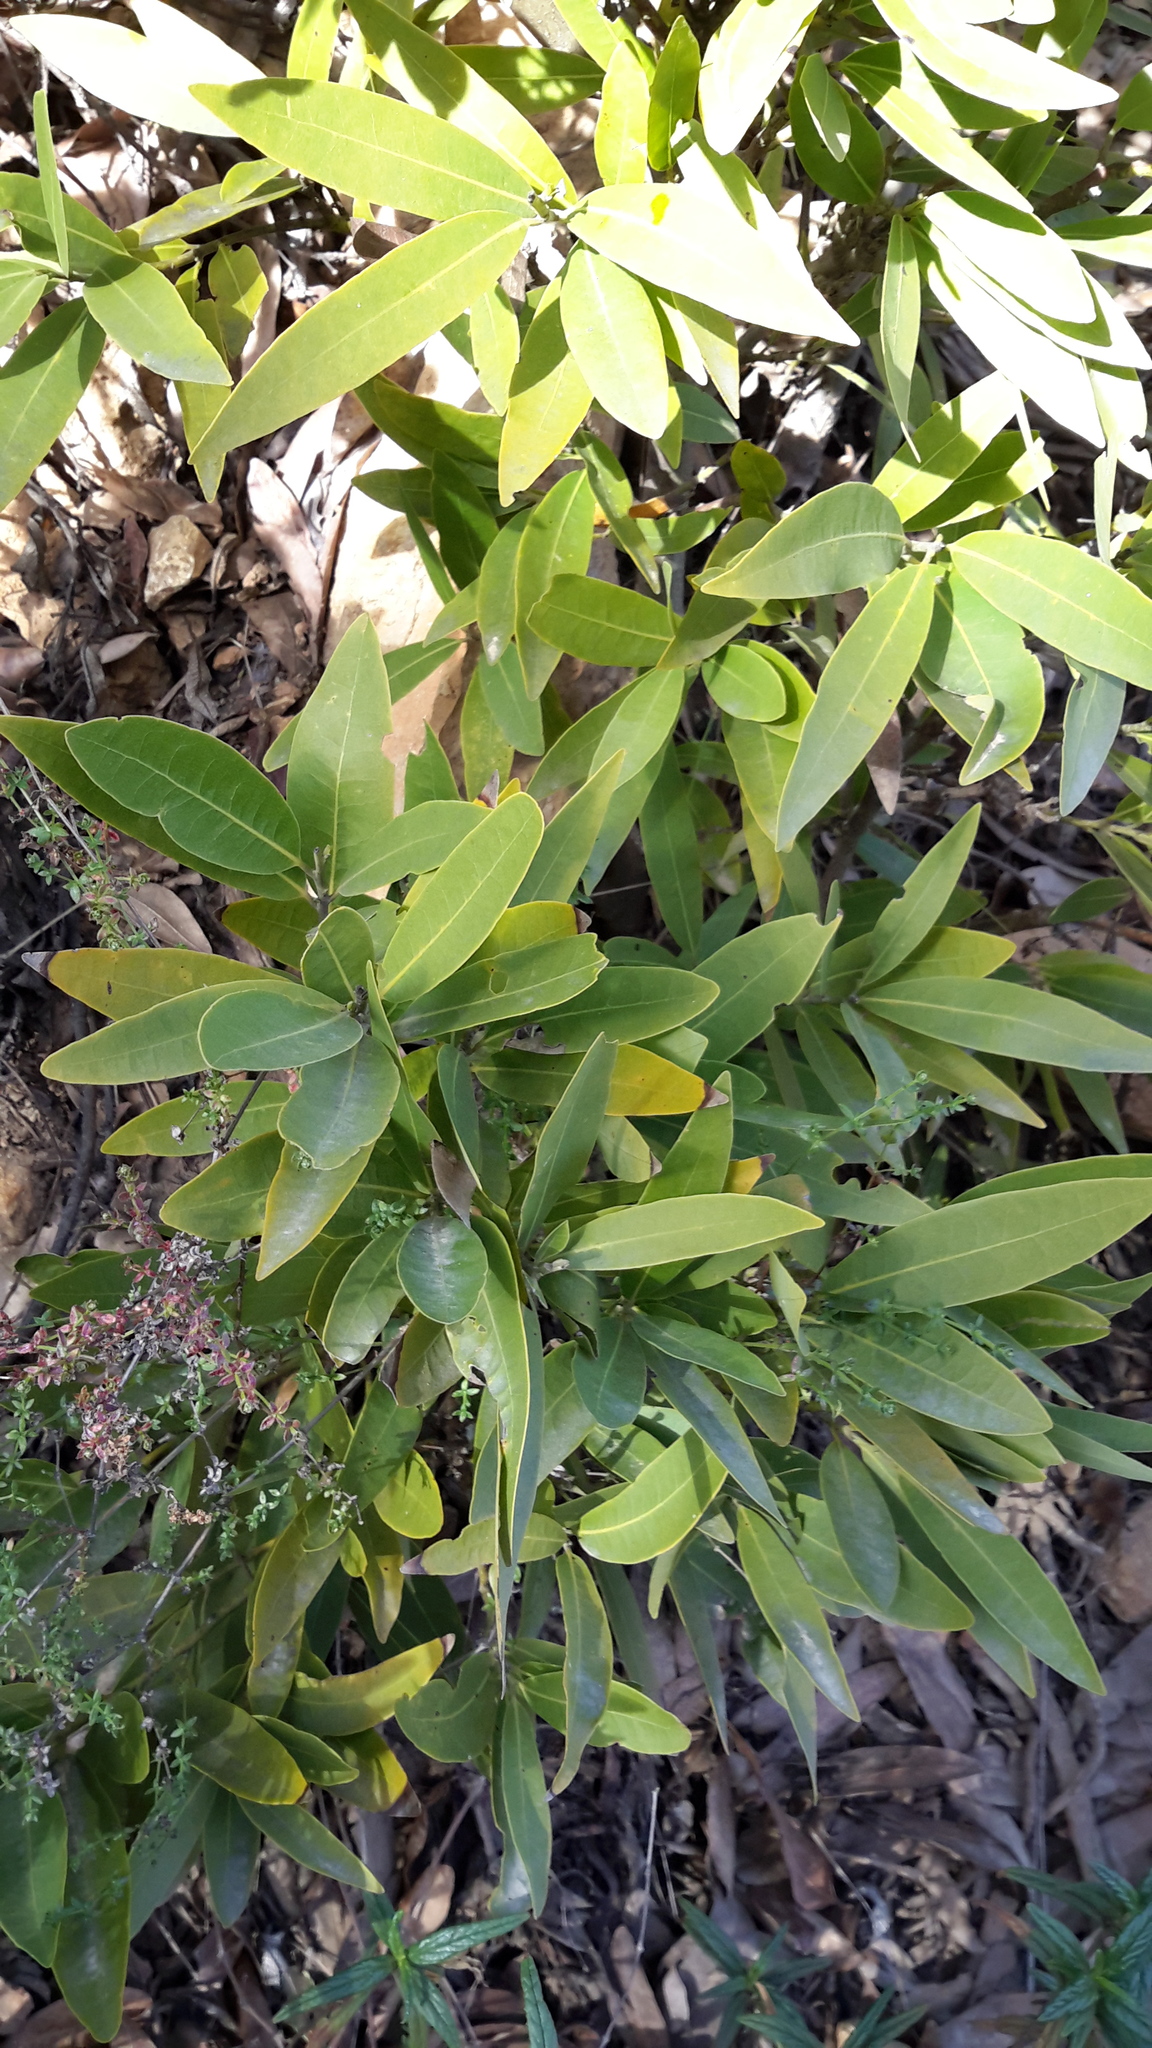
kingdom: Plantae
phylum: Tracheophyta
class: Magnoliopsida
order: Laurales
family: Lauraceae
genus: Umbellularia
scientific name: Umbellularia californica
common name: California bay
